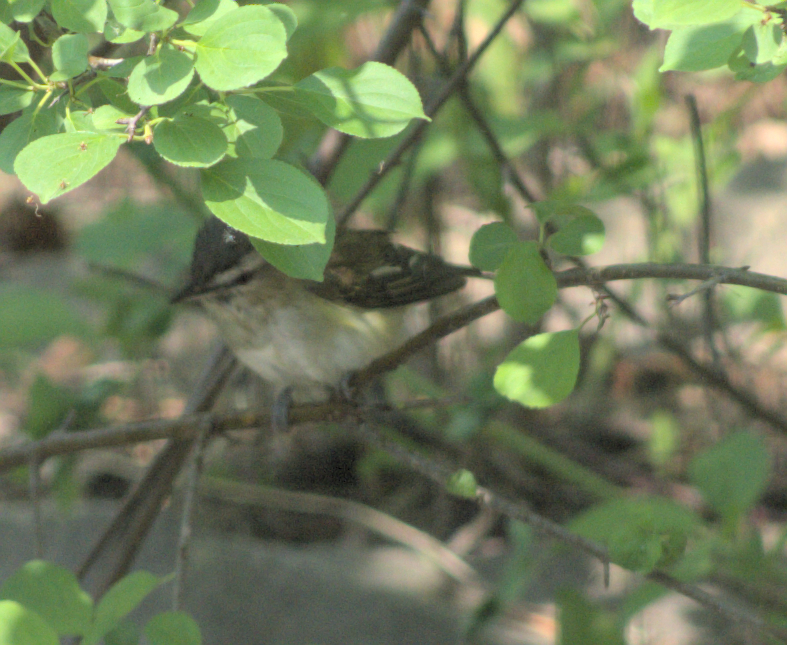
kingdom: Animalia
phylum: Chordata
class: Aves
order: Passeriformes
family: Vireonidae
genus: Vireo
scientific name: Vireo olivaceus
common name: Red-eyed vireo
